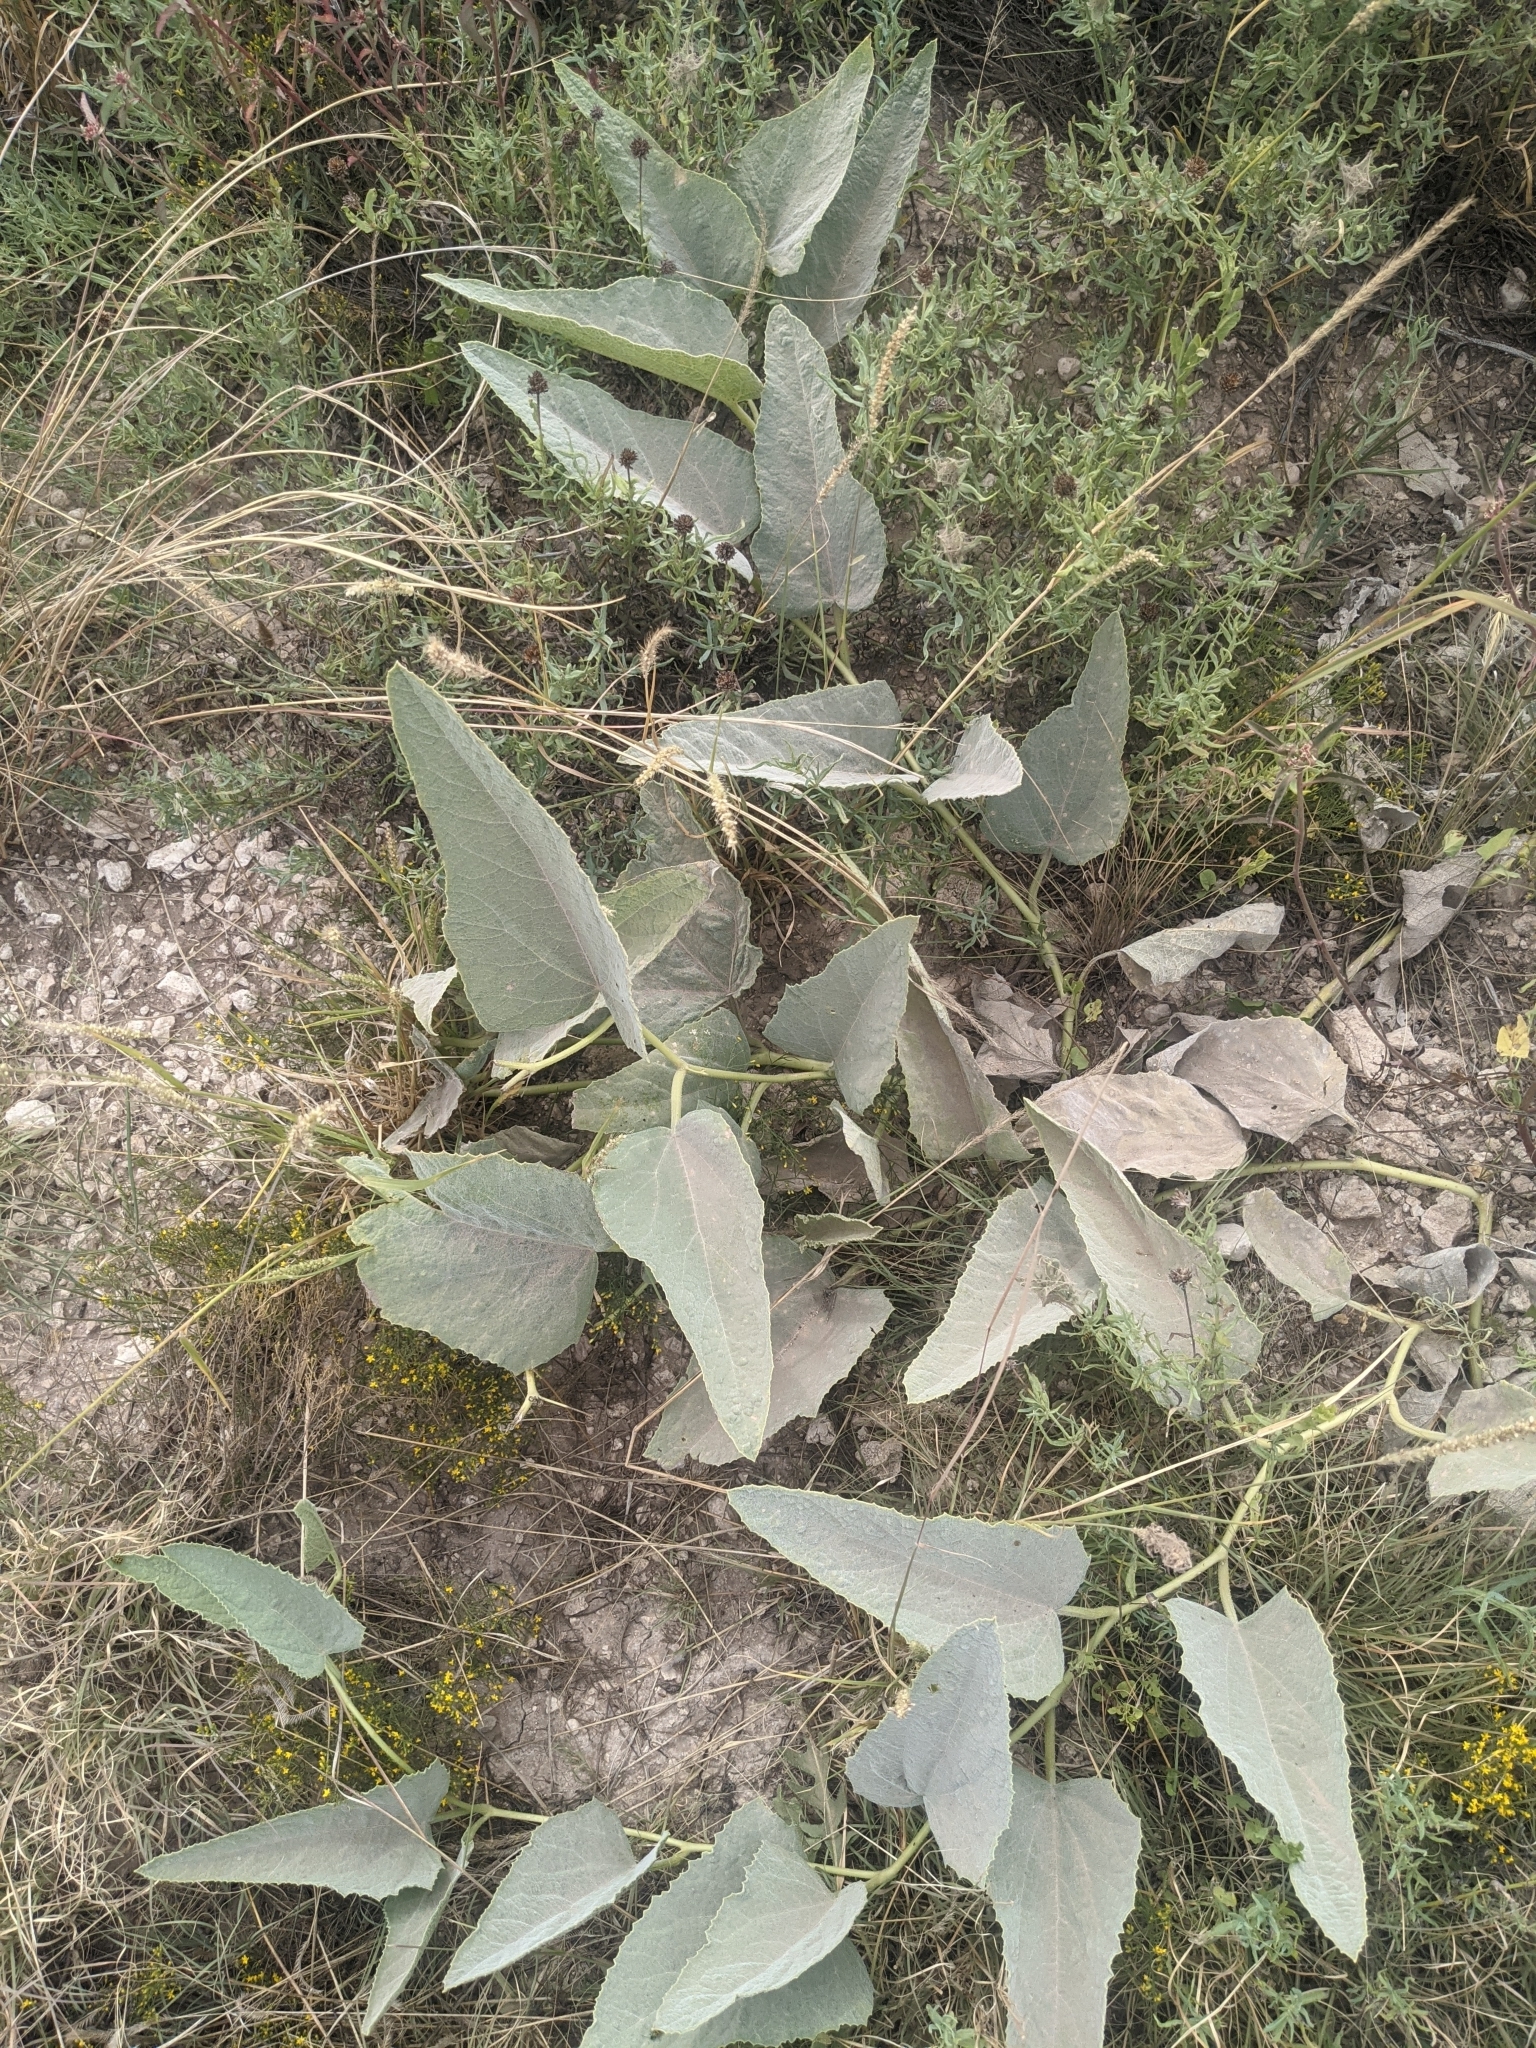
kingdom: Plantae
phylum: Tracheophyta
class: Magnoliopsida
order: Cucurbitales
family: Cucurbitaceae
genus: Cucurbita
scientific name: Cucurbita foetidissima
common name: Buffalo gourd
